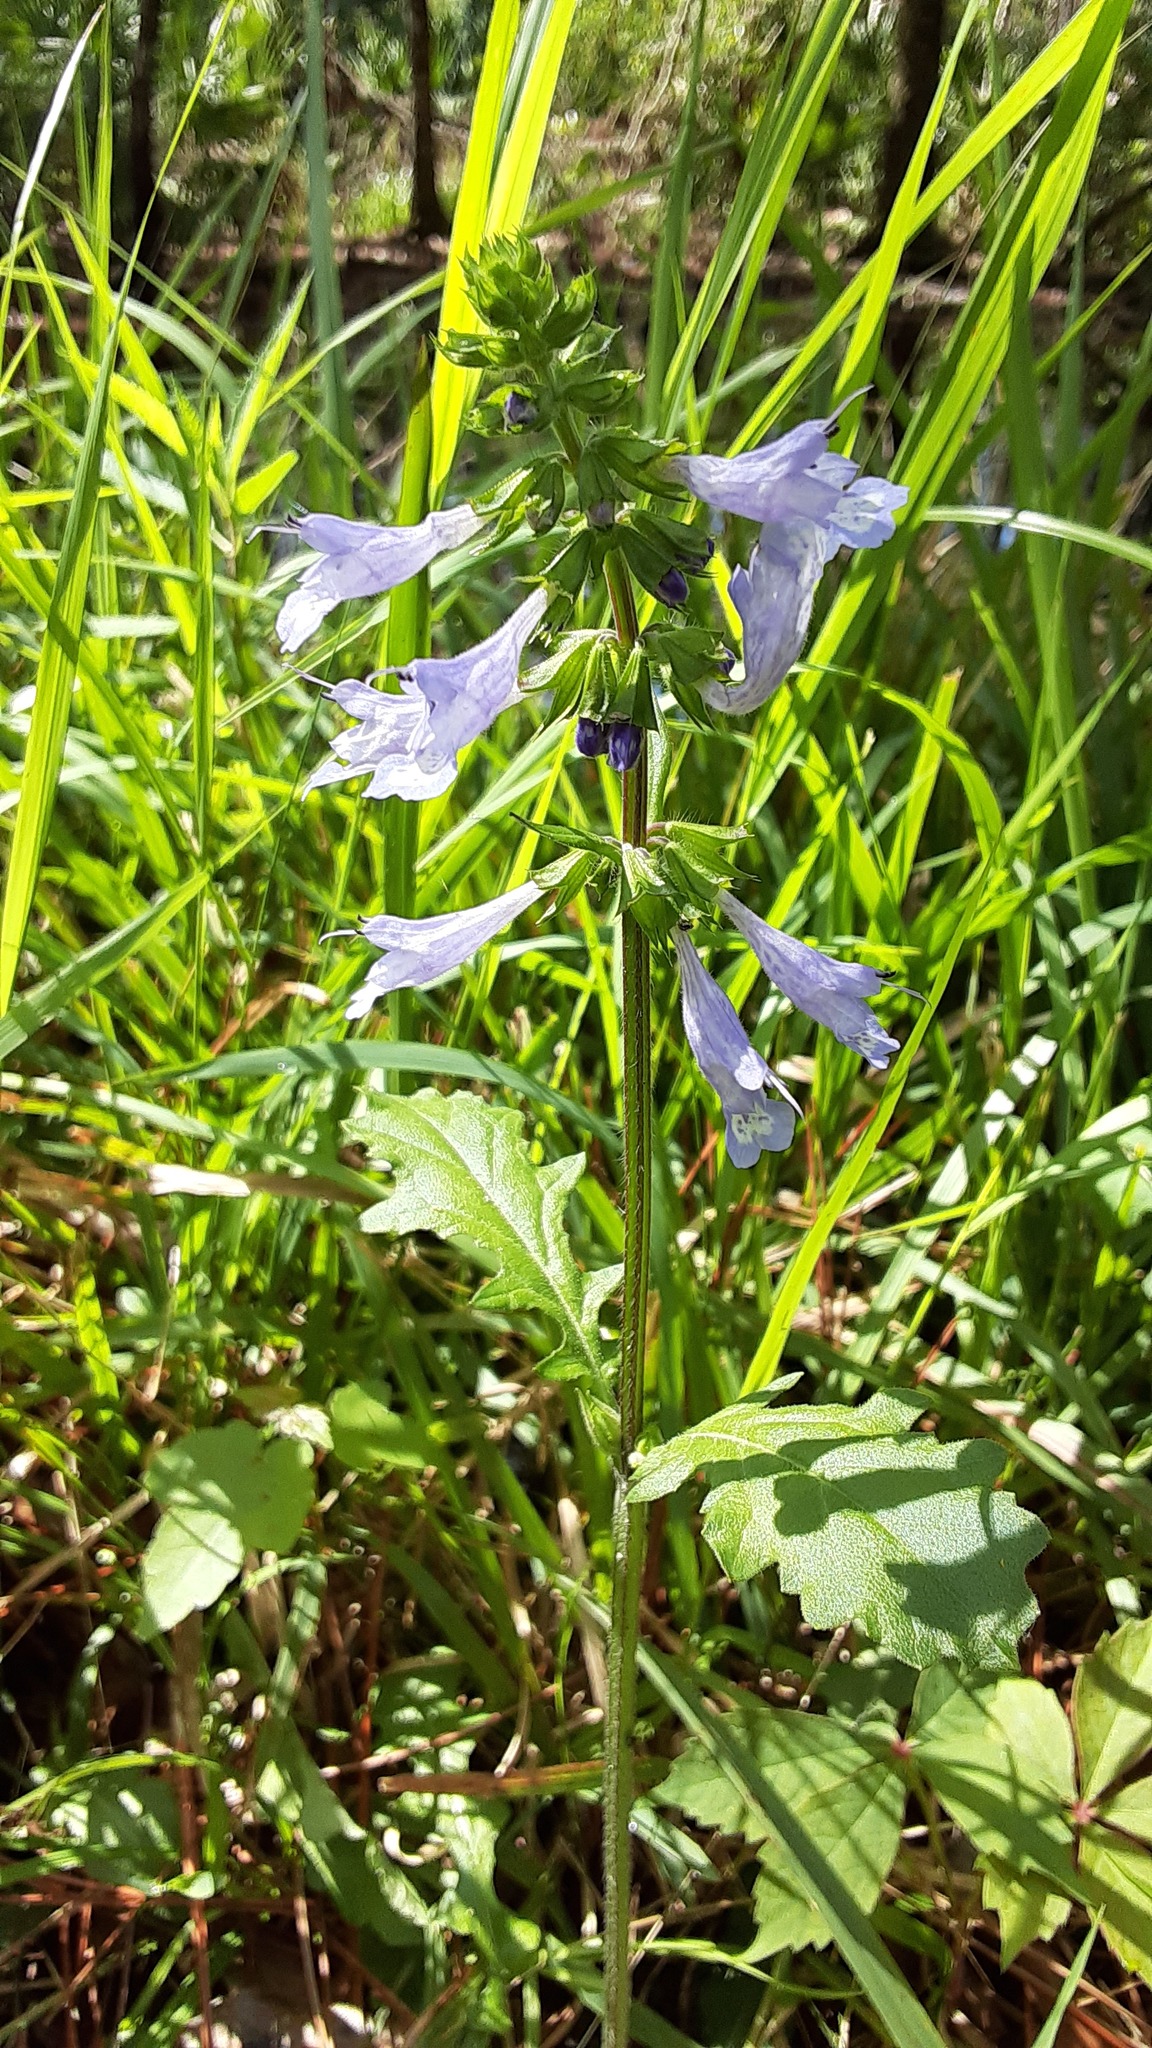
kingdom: Plantae
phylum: Tracheophyta
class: Magnoliopsida
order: Lamiales
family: Lamiaceae
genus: Salvia
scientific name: Salvia lyrata
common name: Cancerweed
